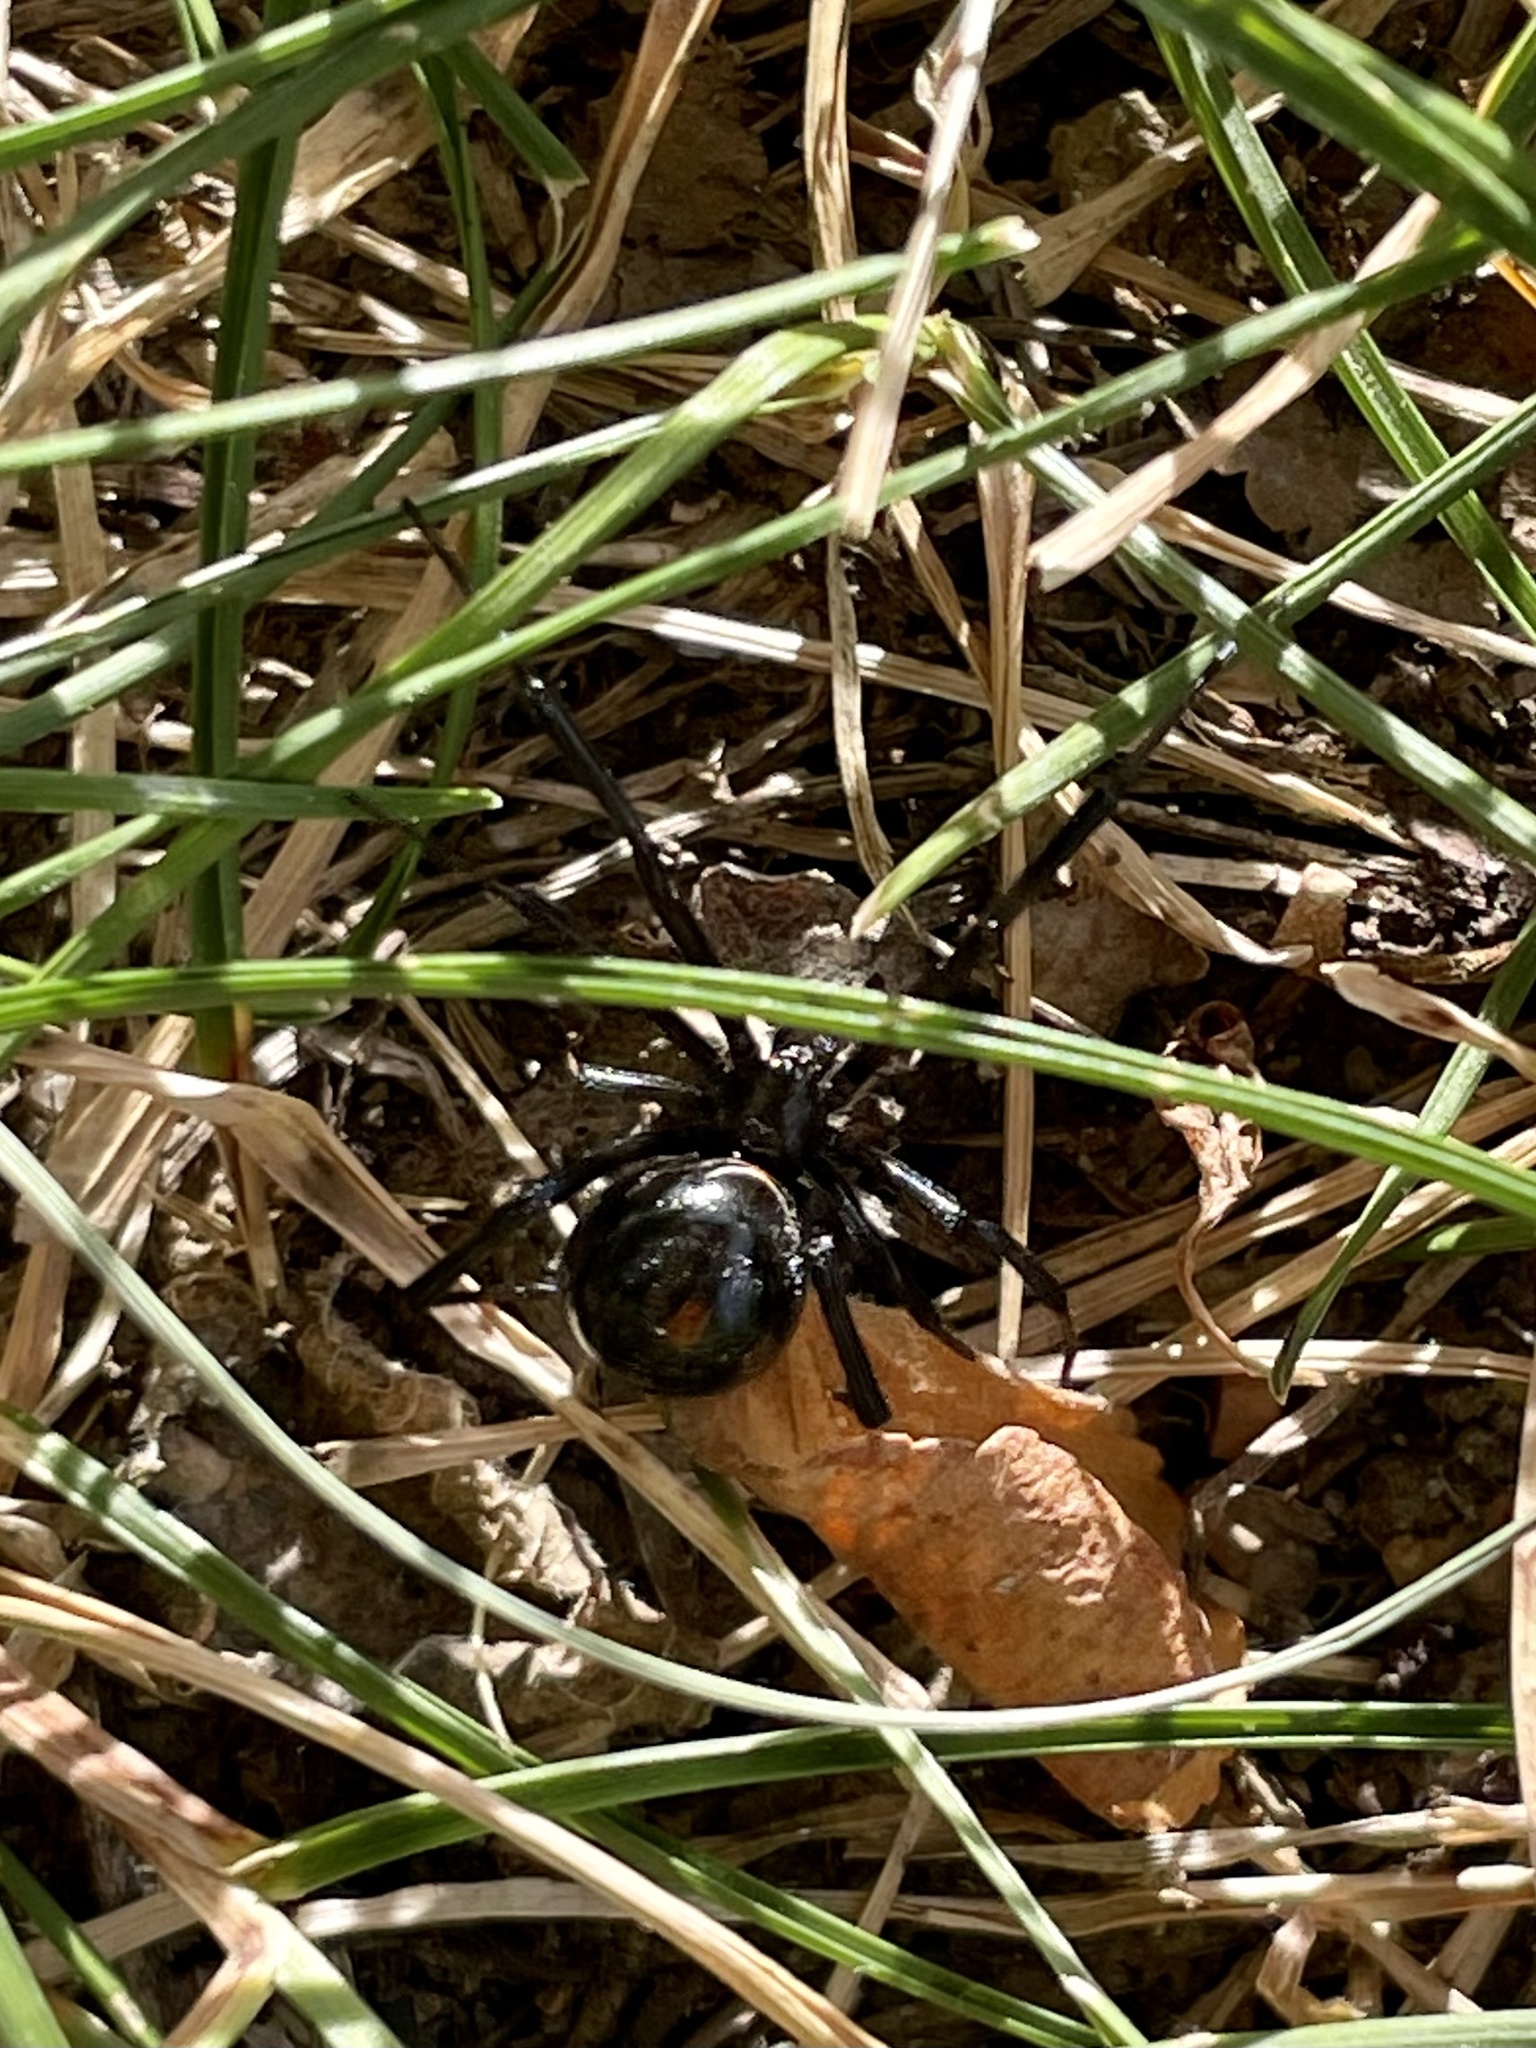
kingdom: Animalia
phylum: Arthropoda
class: Arachnida
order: Araneae
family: Theridiidae
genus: Latrodectus
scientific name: Latrodectus hesperus
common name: Western black widow
